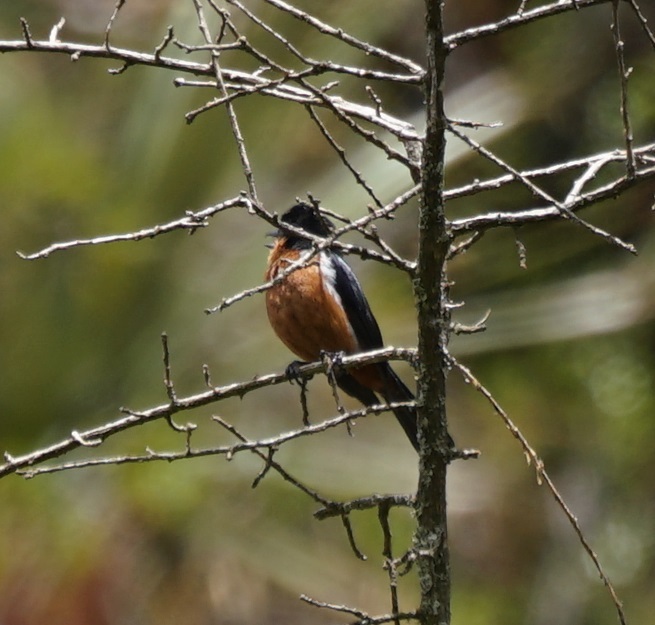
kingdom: Animalia
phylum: Chordata
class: Aves
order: Passeriformes
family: Thraupidae
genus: Diglossa
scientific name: Diglossa brunneiventris
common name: Black-throated flowerpiercer
